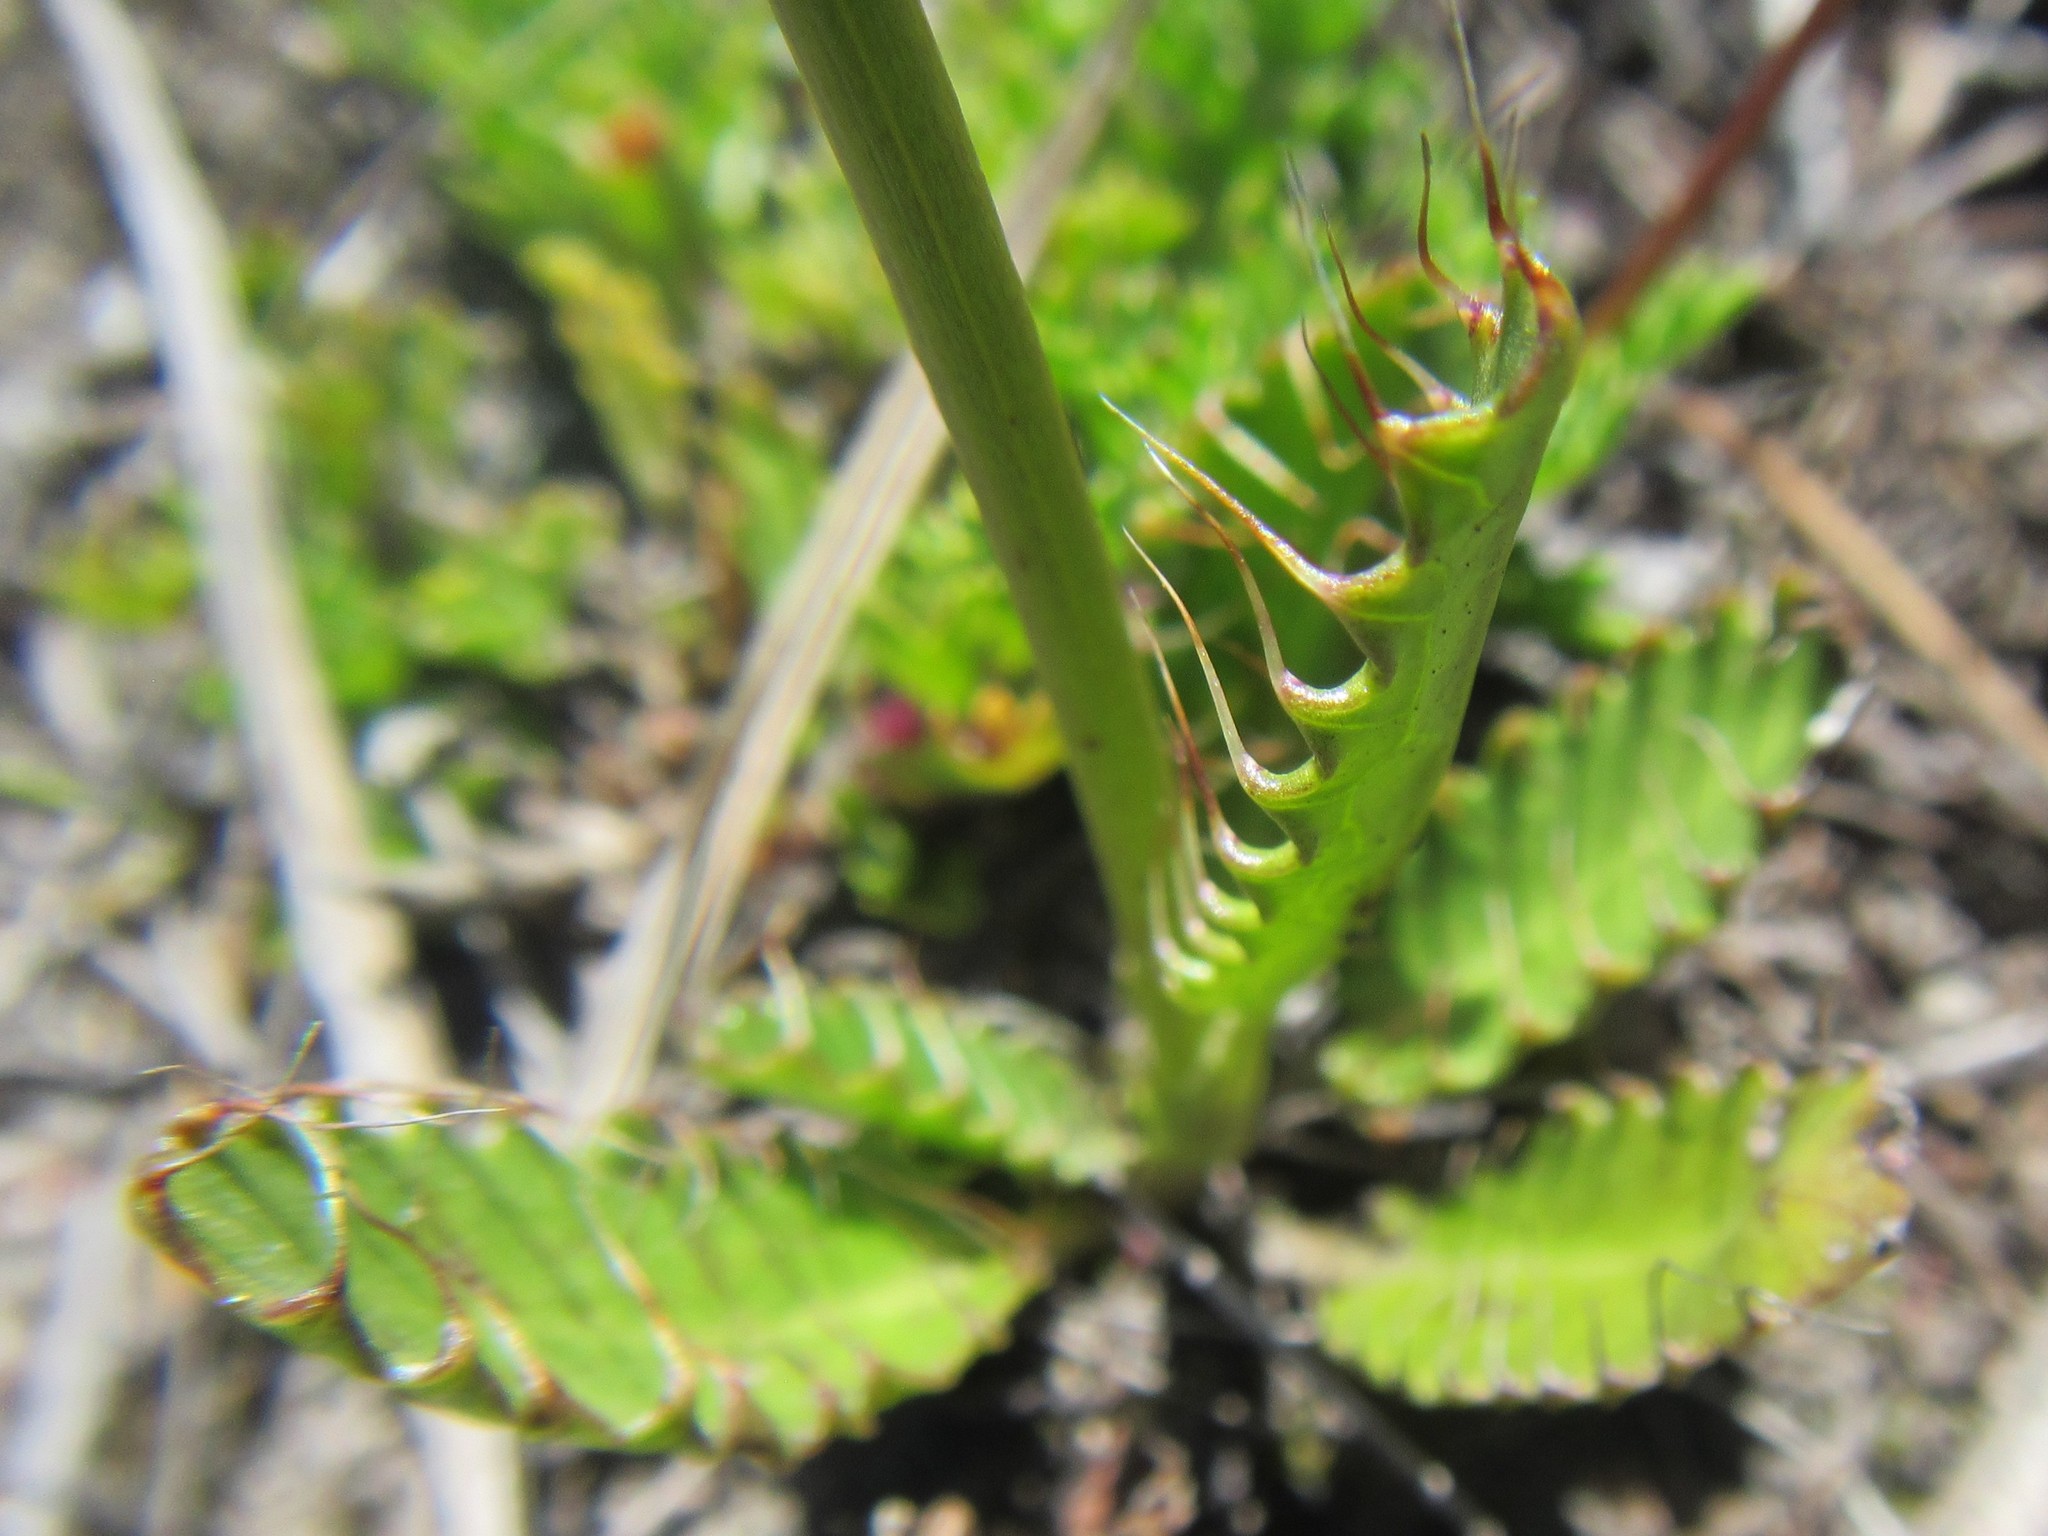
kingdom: Plantae
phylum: Tracheophyta
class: Magnoliopsida
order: Apiales
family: Apiaceae
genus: Alepidea
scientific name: Alepidea capensis
